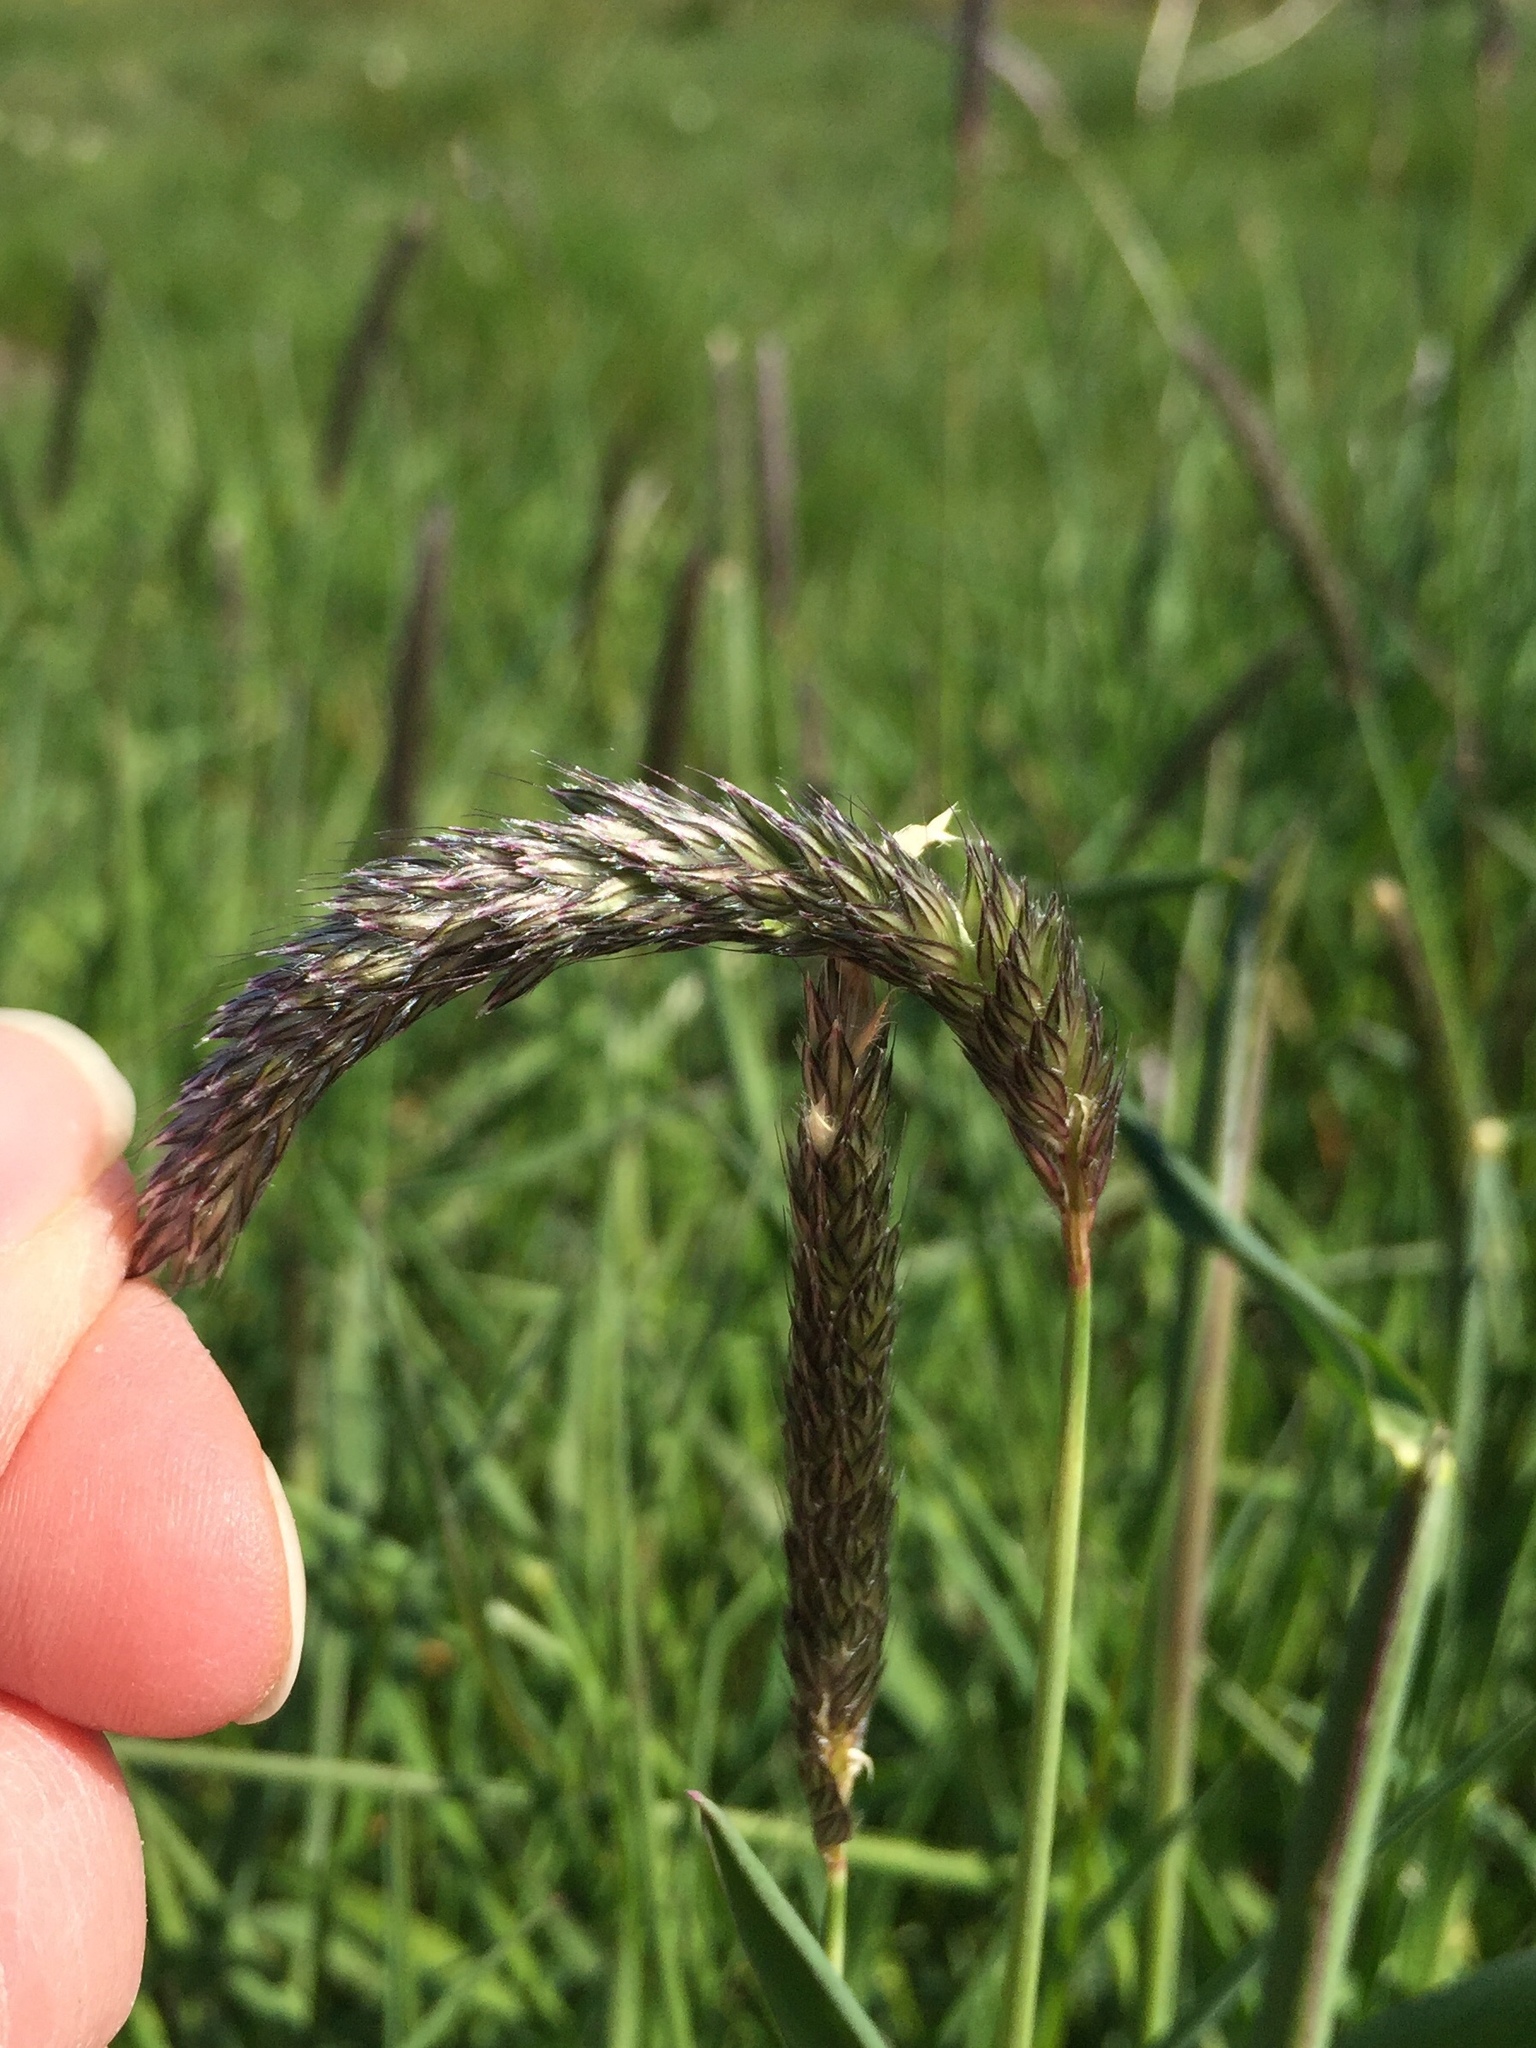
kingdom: Plantae
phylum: Tracheophyta
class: Liliopsida
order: Poales
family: Poaceae
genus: Alopecurus
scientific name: Alopecurus pratensis
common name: Meadow foxtail
